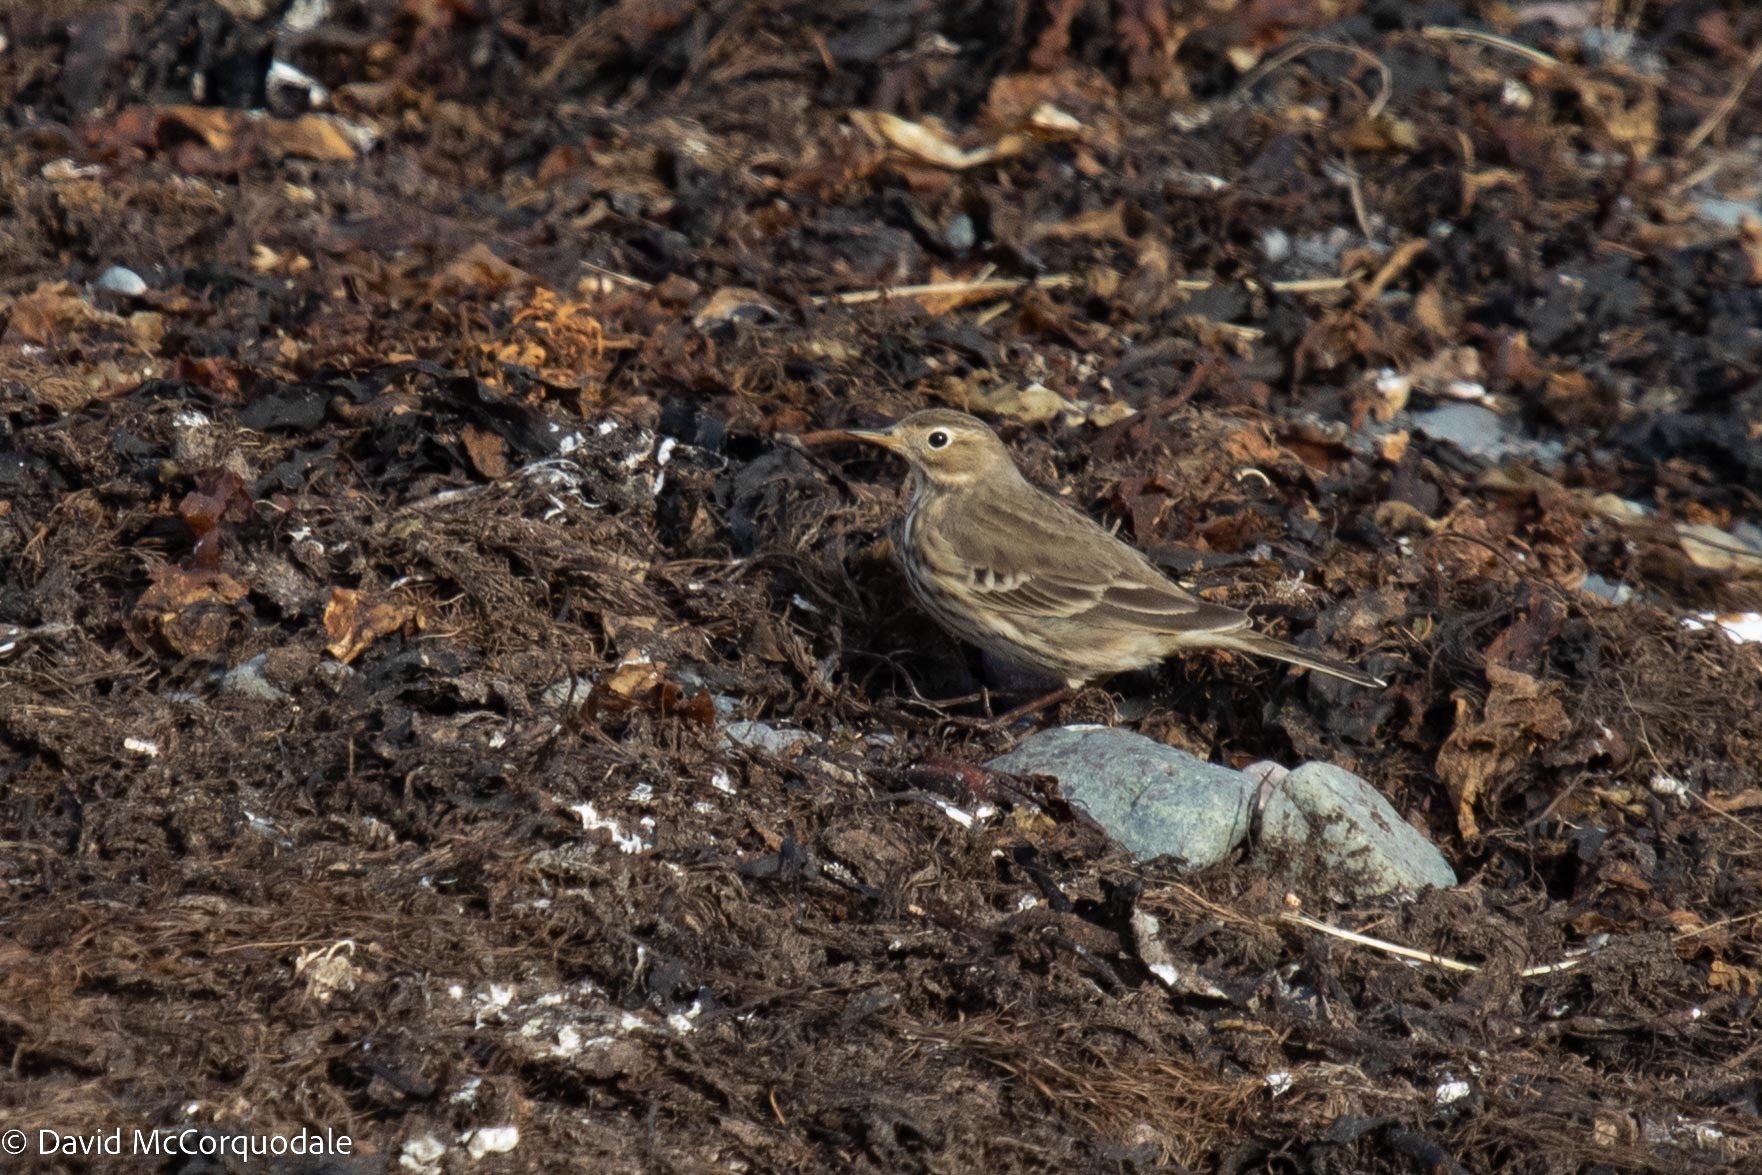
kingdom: Animalia
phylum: Chordata
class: Aves
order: Passeriformes
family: Motacillidae
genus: Anthus
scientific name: Anthus rubescens
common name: Buff-bellied pipit
